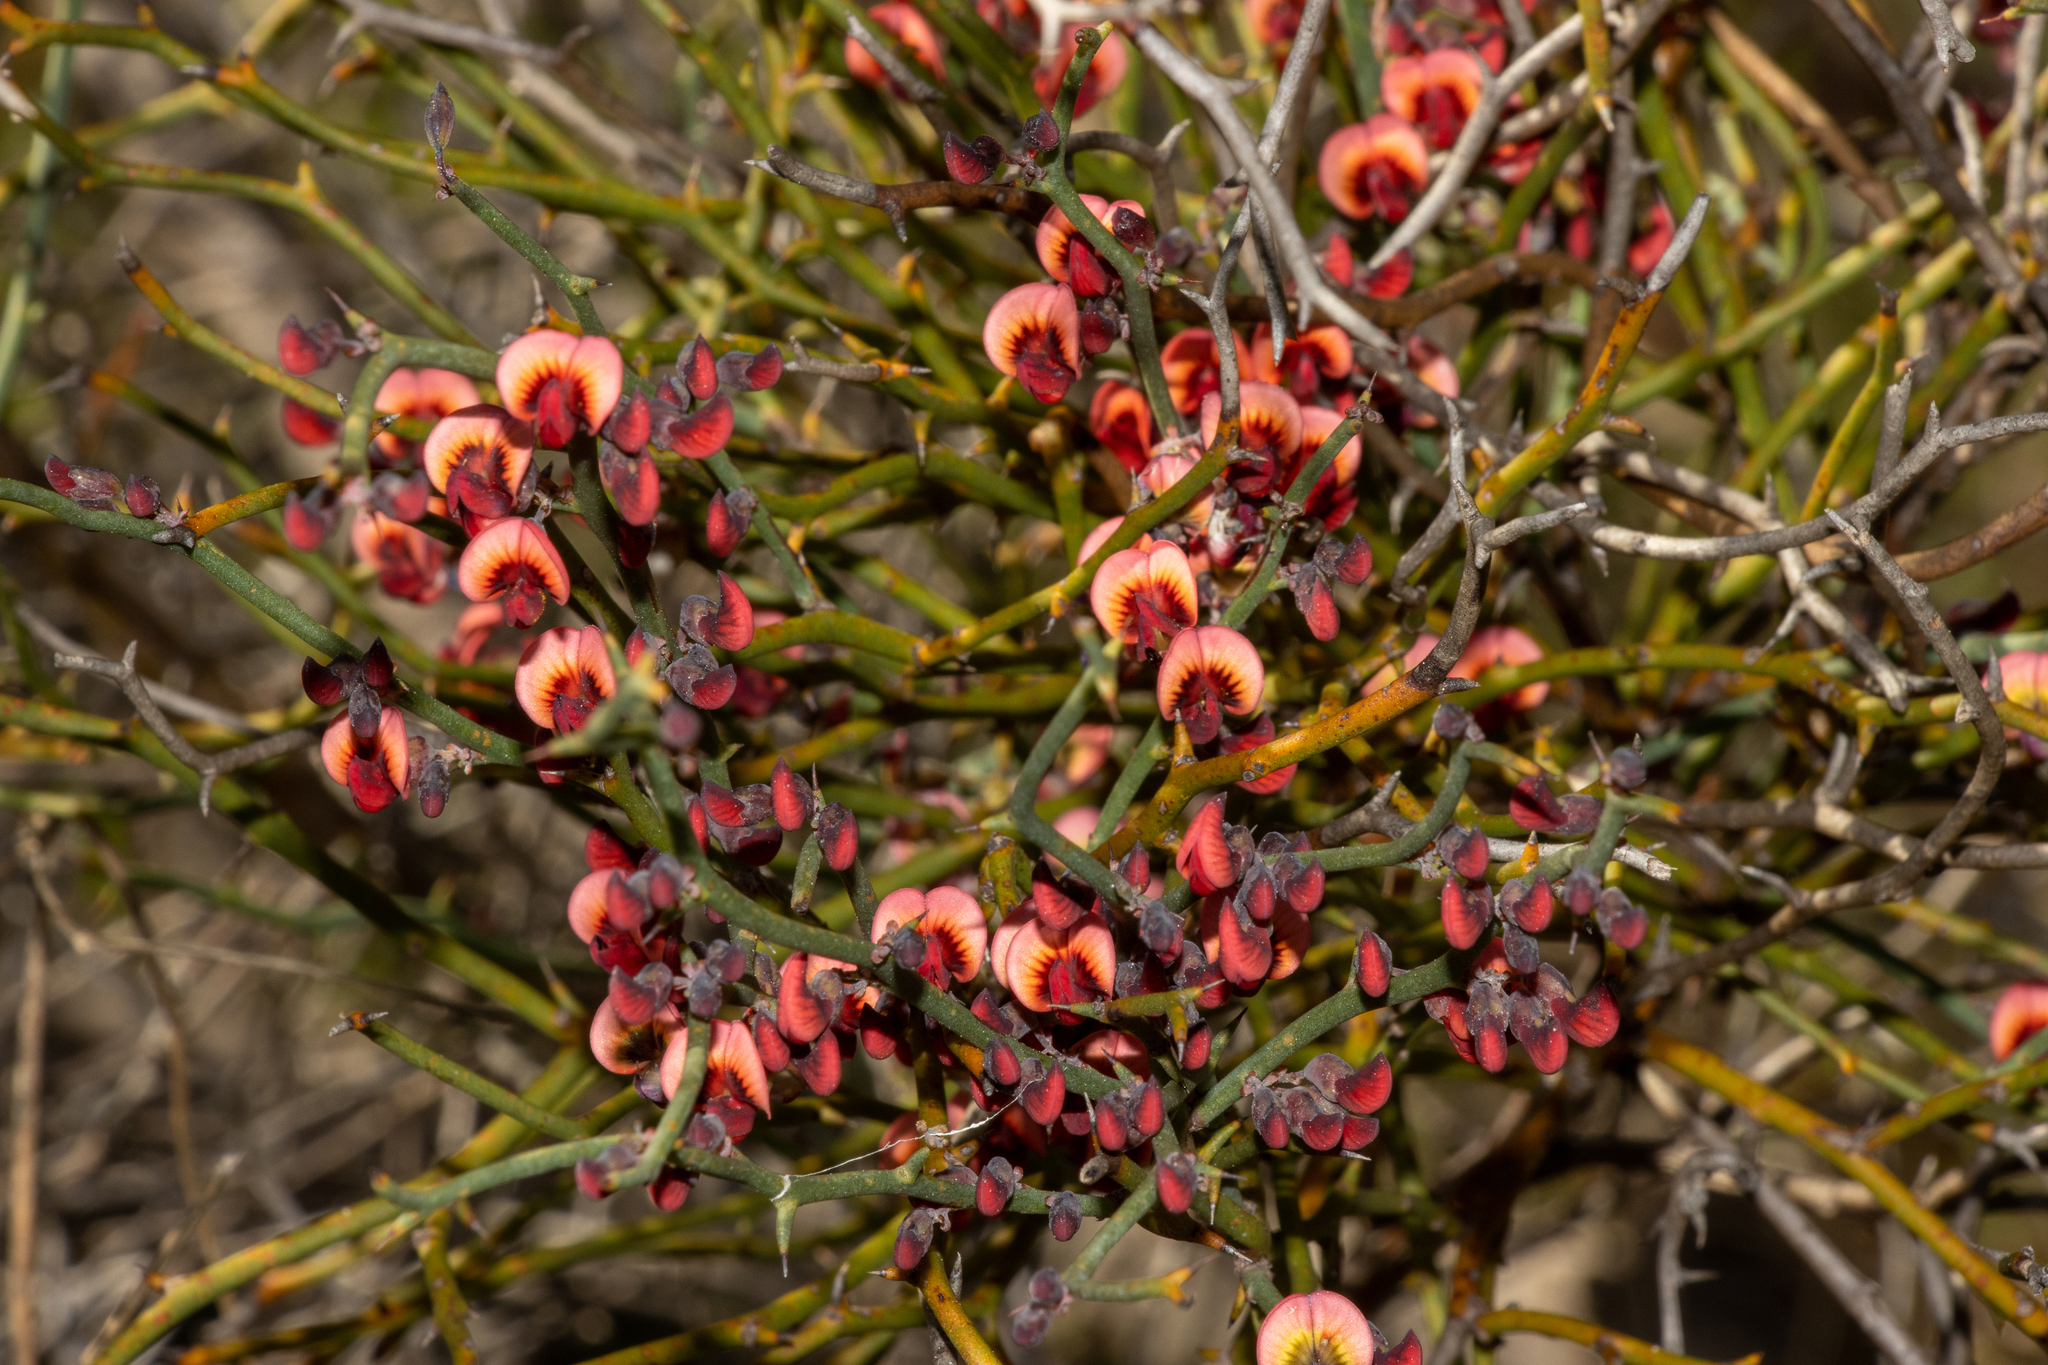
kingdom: Plantae
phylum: Tracheophyta
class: Magnoliopsida
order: Fabales
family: Fabaceae
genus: Daviesia
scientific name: Daviesia brevifolia
